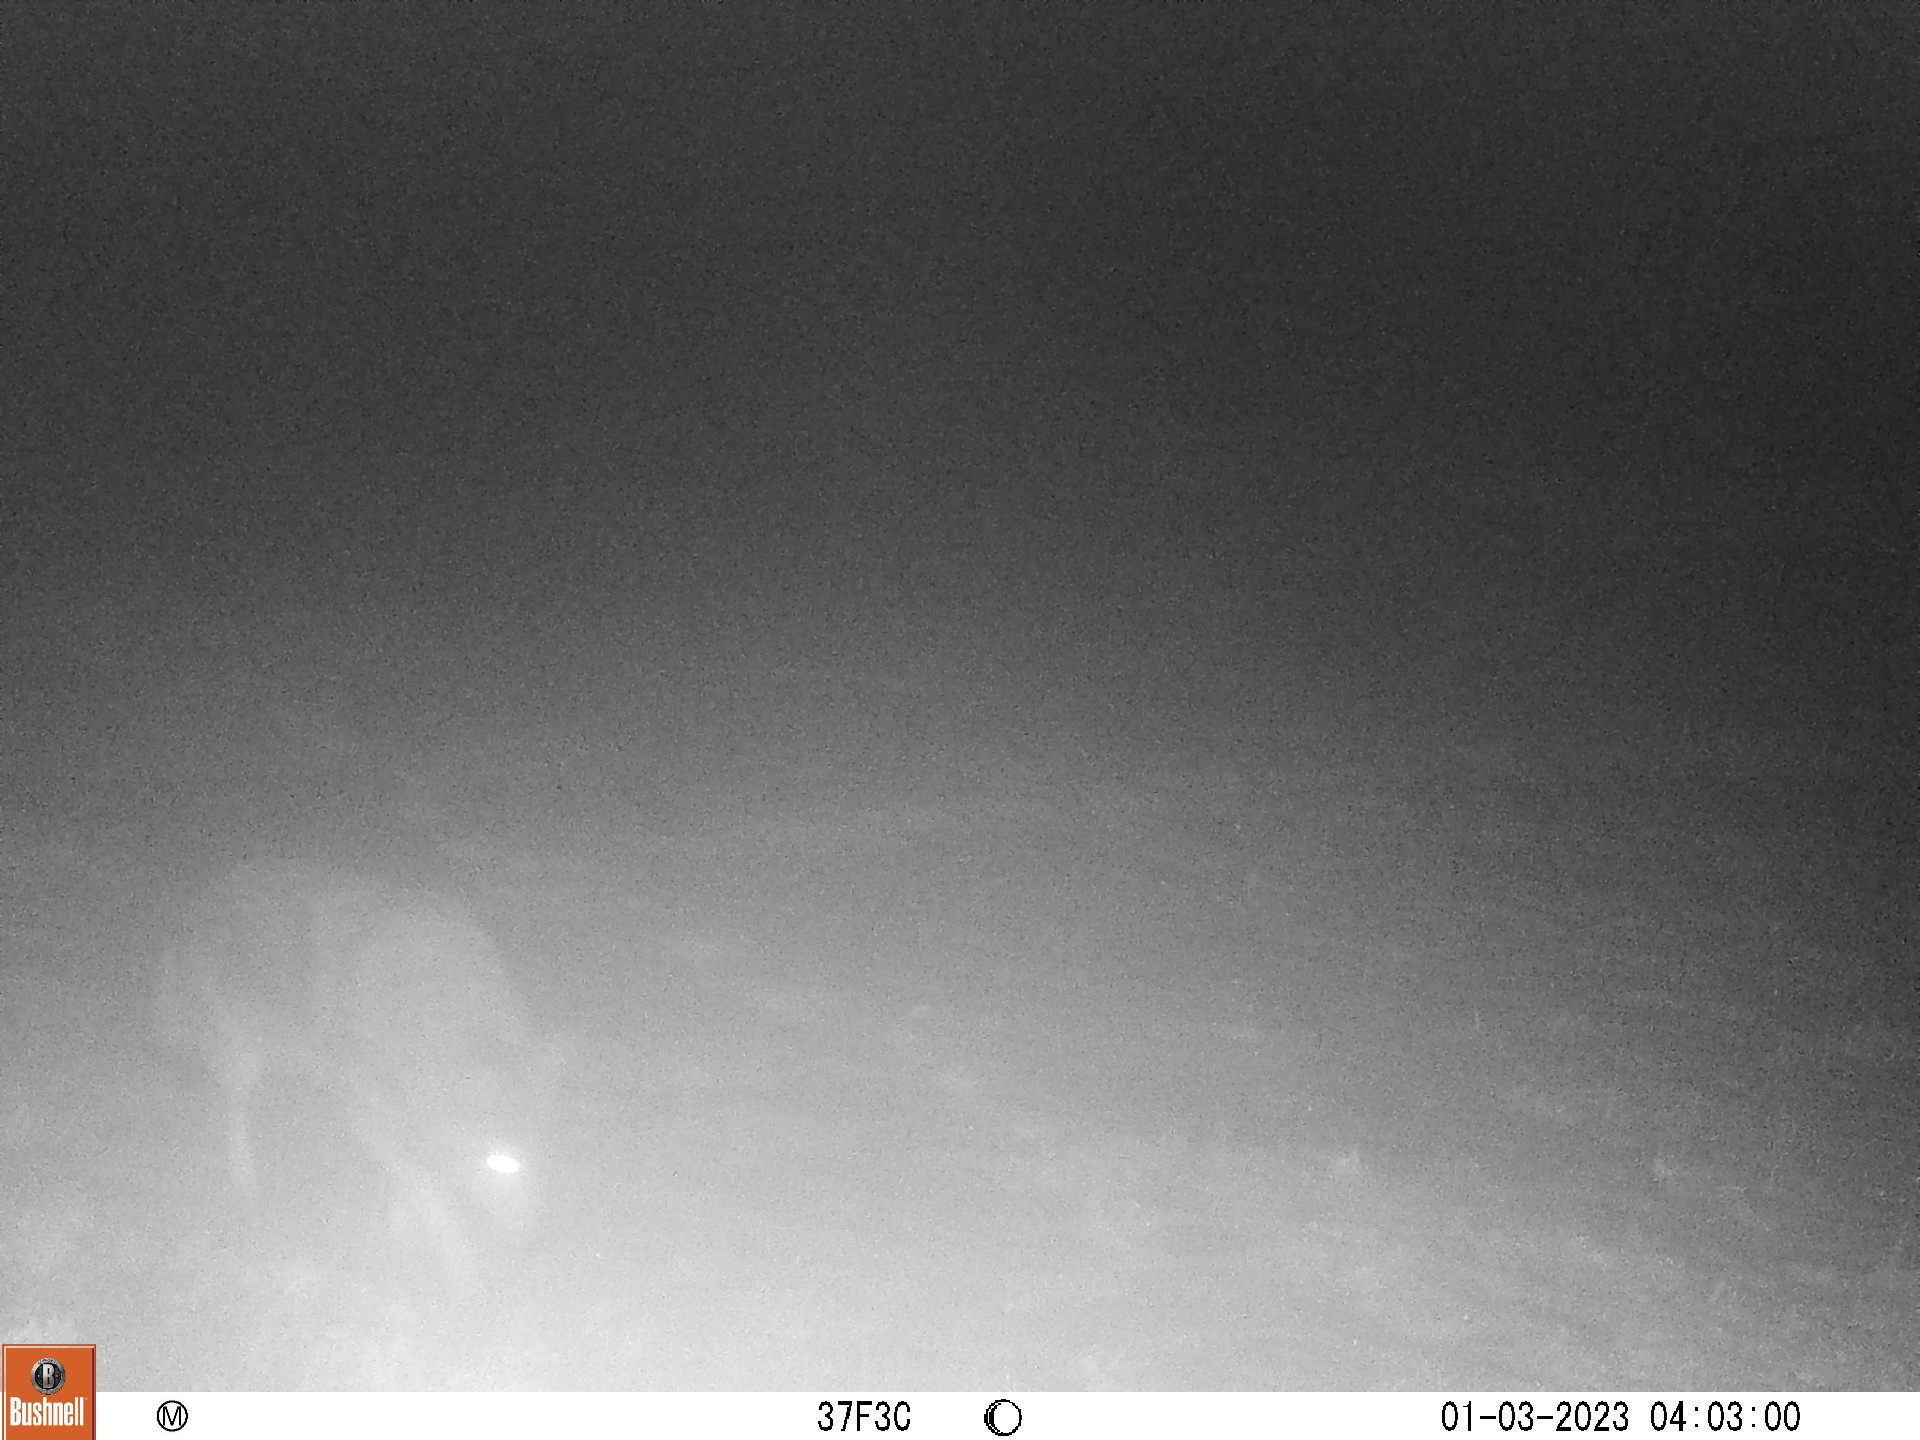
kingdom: Animalia
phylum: Chordata
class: Mammalia
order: Carnivora
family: Canidae
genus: Canis
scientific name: Canis latrans
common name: Coyote
